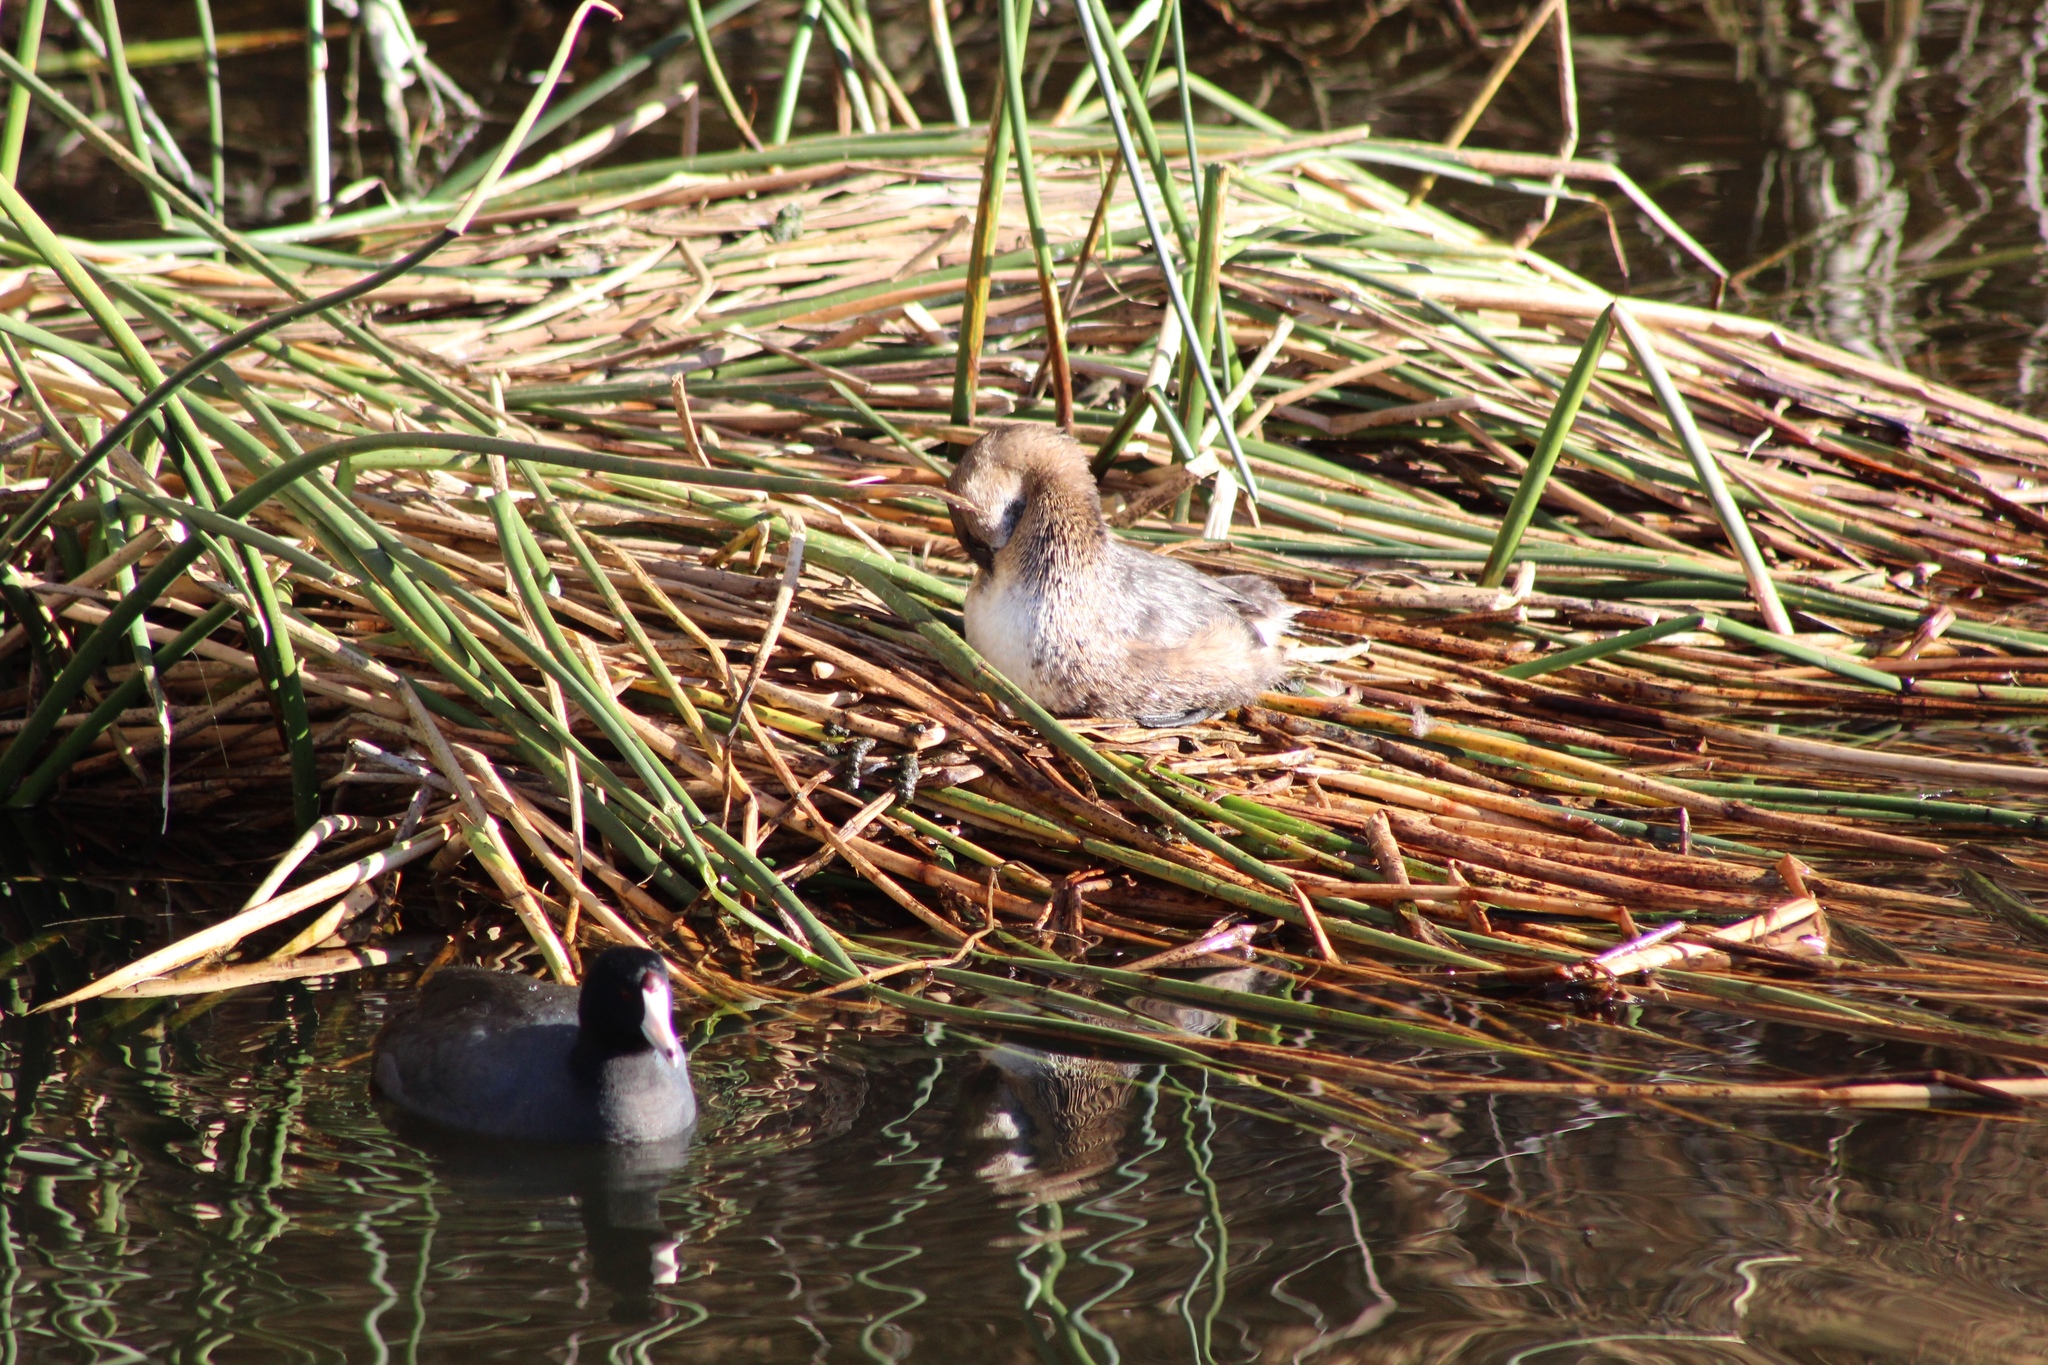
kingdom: Animalia
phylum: Chordata
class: Aves
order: Gruiformes
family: Rallidae
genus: Fulica
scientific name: Fulica americana
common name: American coot
